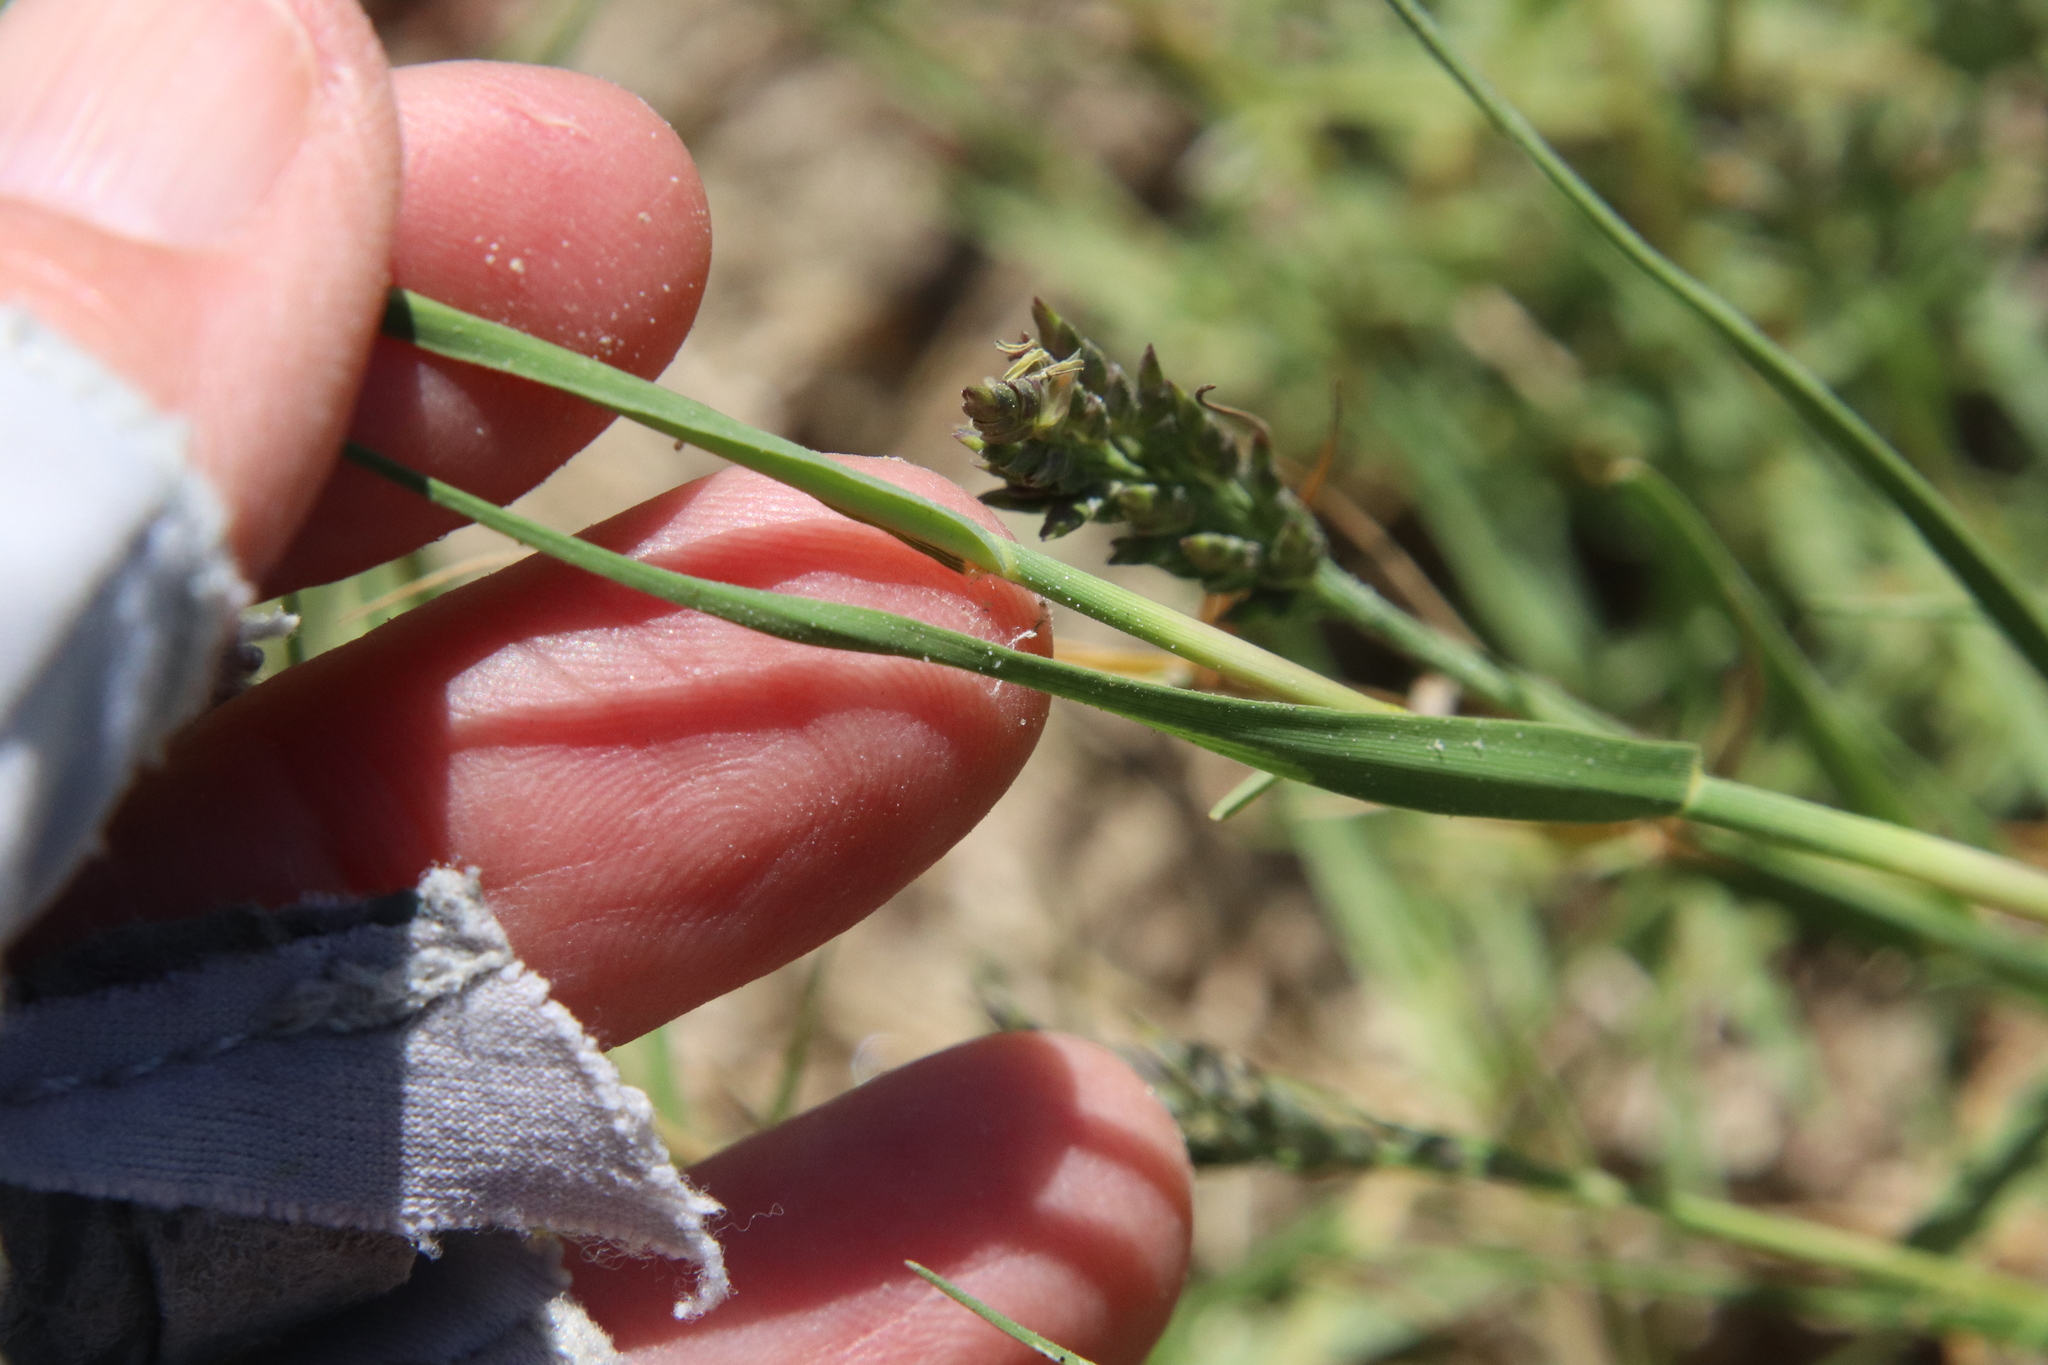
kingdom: Plantae
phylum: Tracheophyta
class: Liliopsida
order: Poales
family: Poaceae
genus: Distichlis
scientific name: Distichlis spicata
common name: Saltgrass
